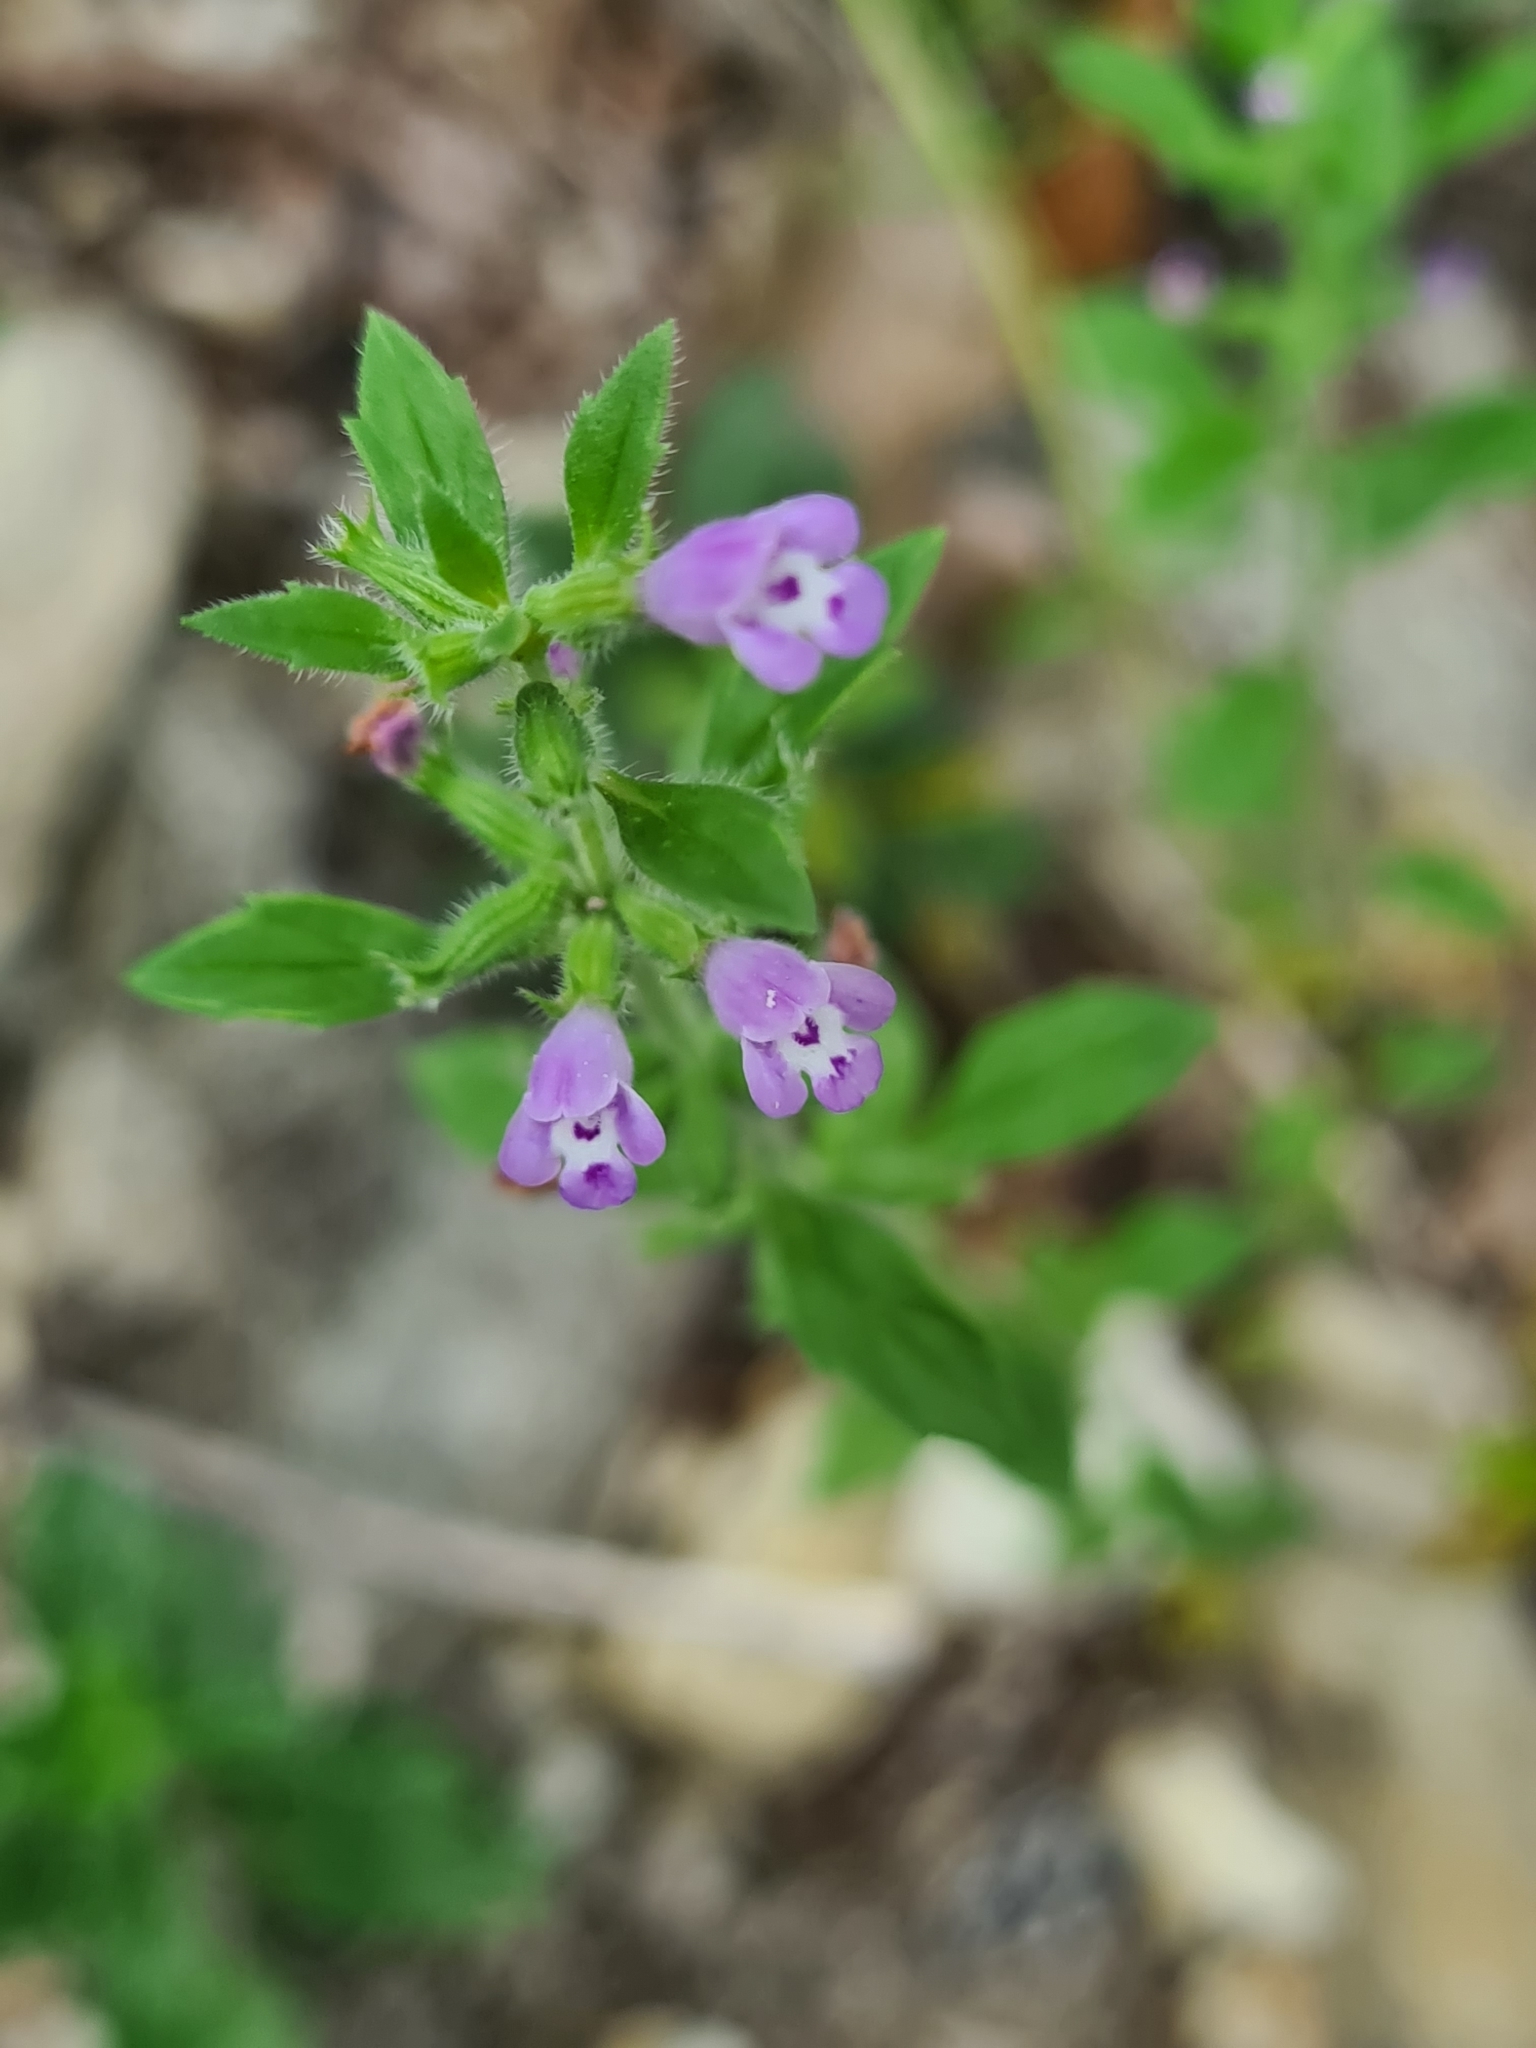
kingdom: Plantae
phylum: Tracheophyta
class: Magnoliopsida
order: Lamiales
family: Lamiaceae
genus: Clinopodium
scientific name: Clinopodium acinos
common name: Basil thyme
